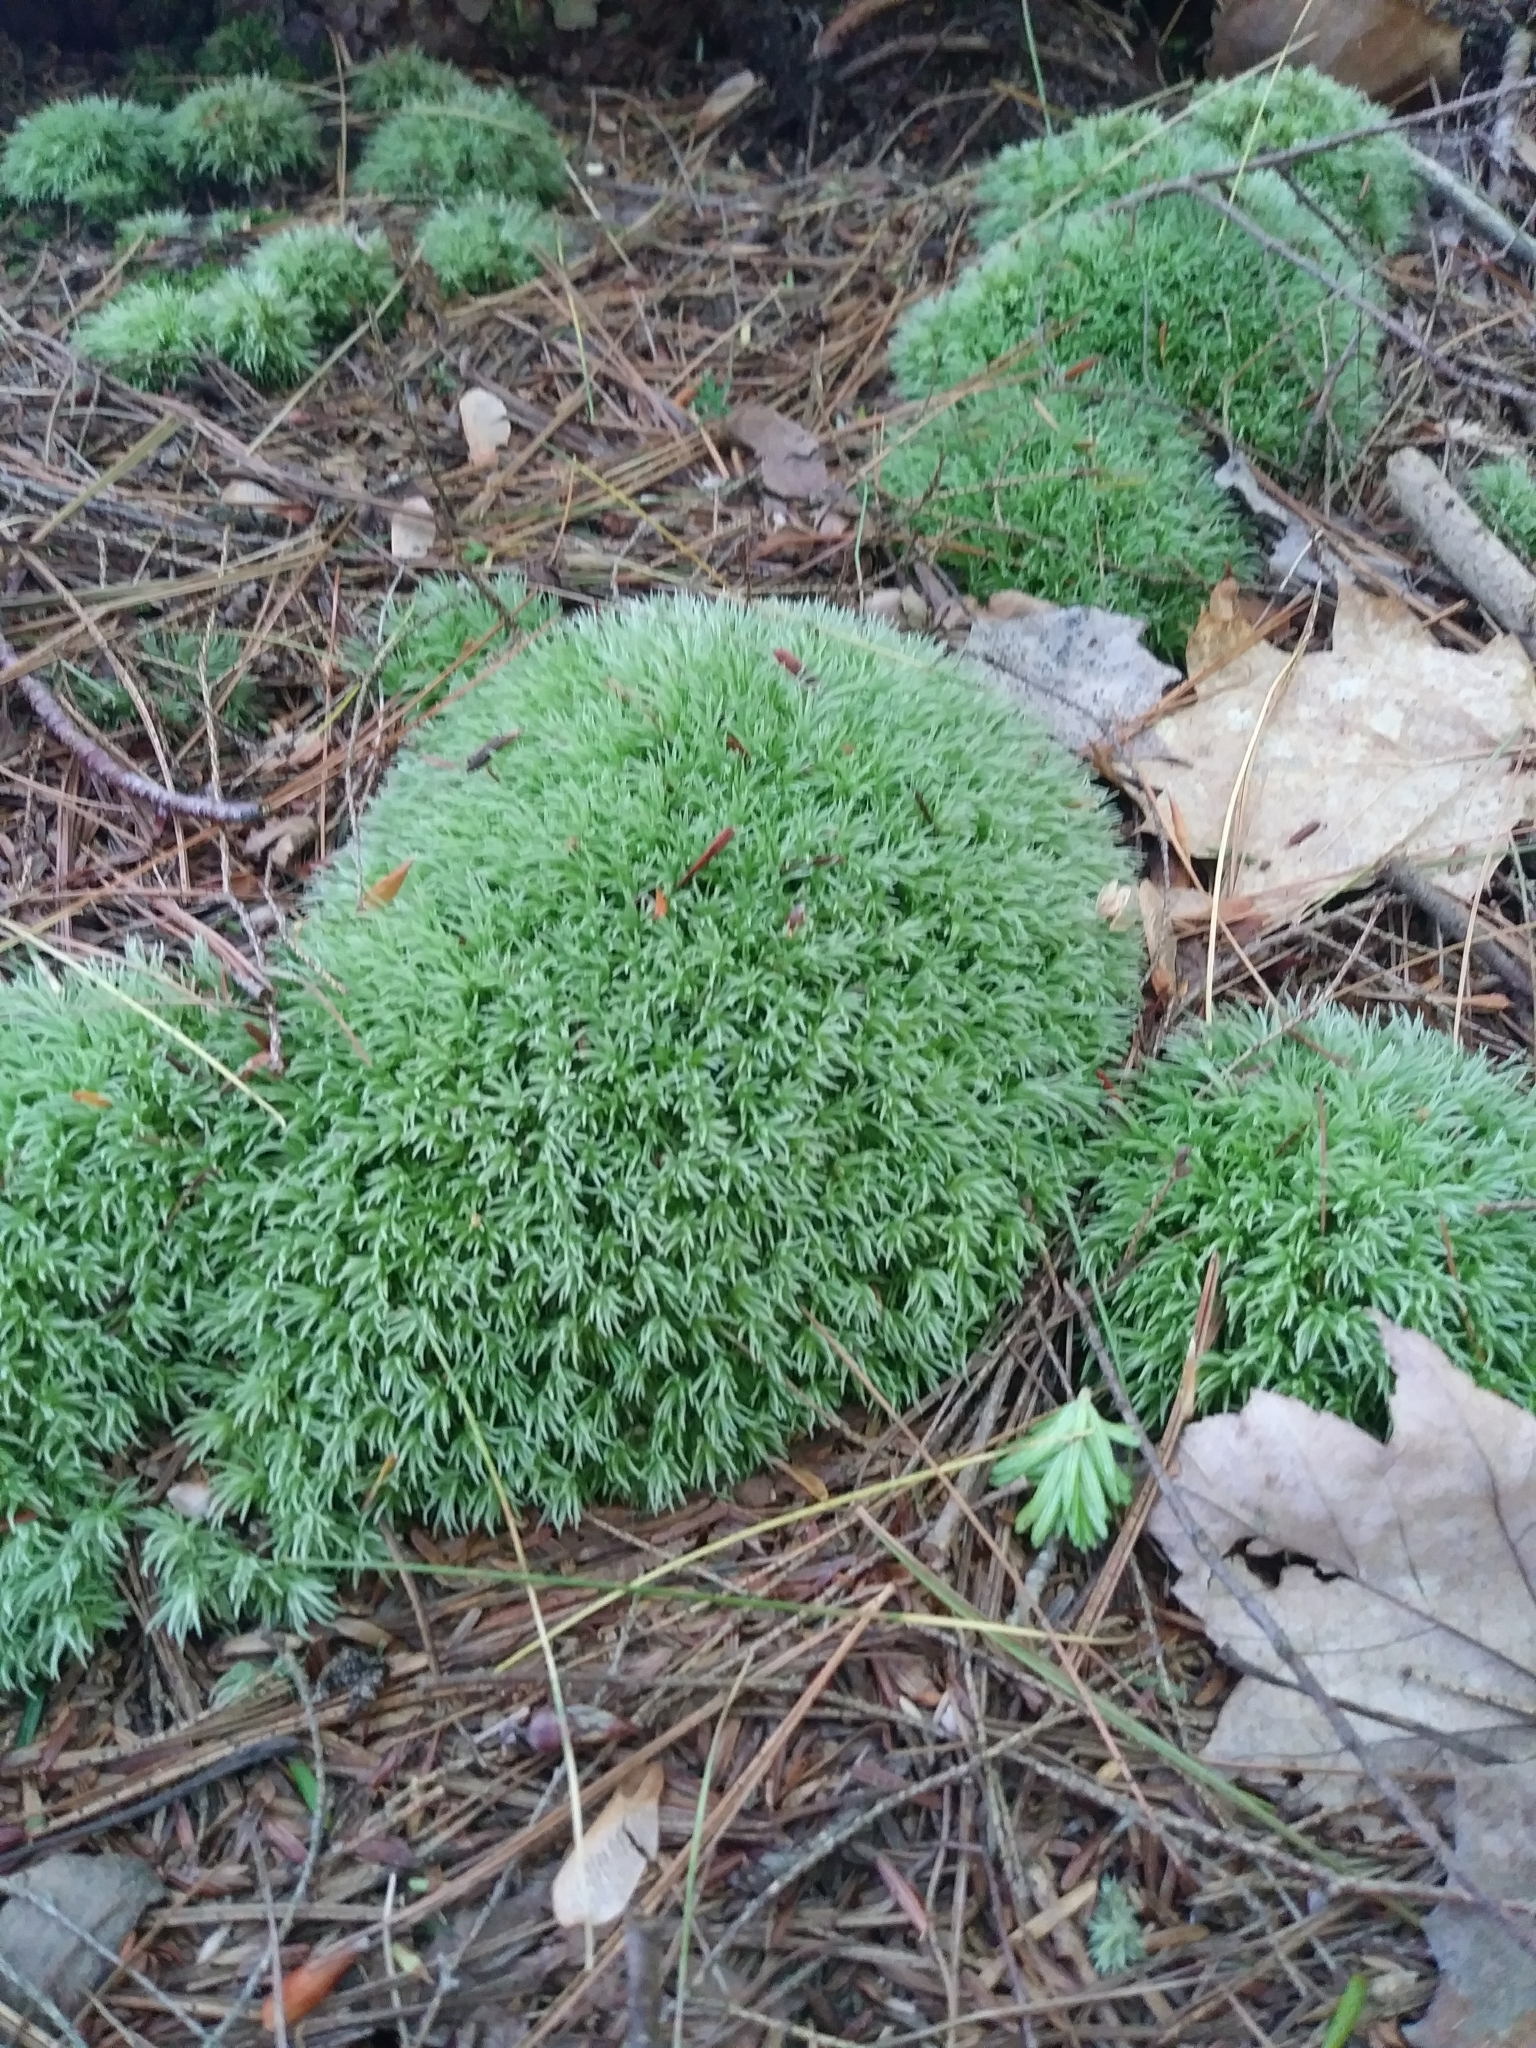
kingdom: Plantae
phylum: Bryophyta
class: Bryopsida
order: Dicranales
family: Leucobryaceae
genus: Leucobryum
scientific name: Leucobryum glaucum
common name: Large white-moss
